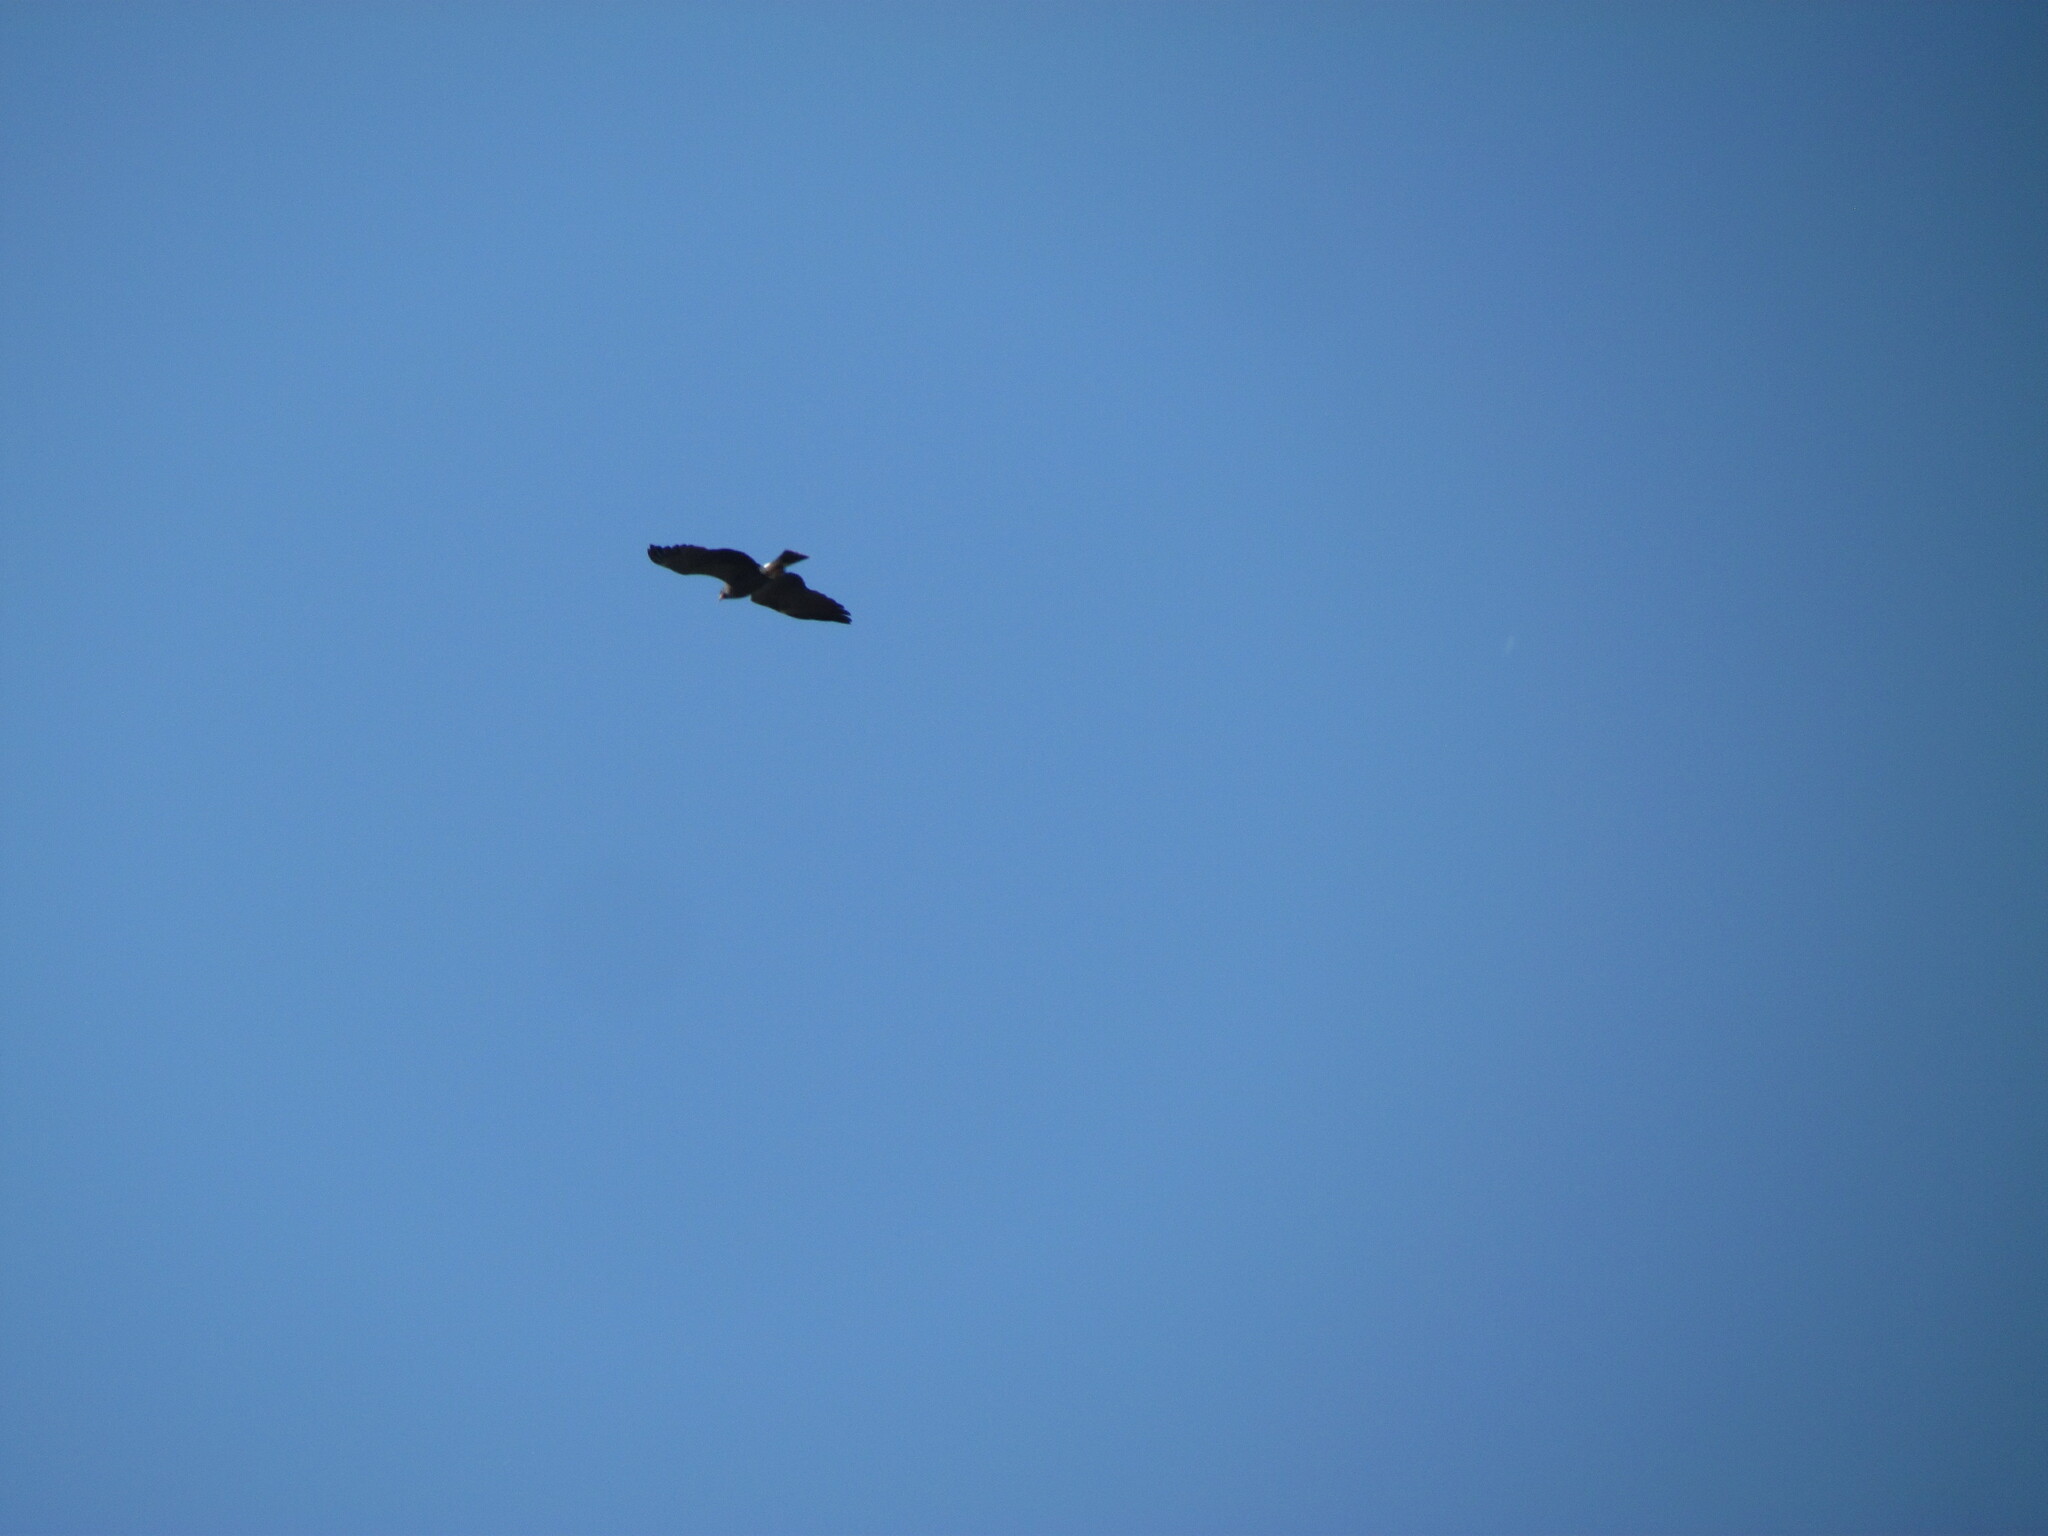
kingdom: Animalia
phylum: Chordata
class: Aves
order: Accipitriformes
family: Accipitridae
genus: Rostrhamus
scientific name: Rostrhamus sociabilis
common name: Snail kite
